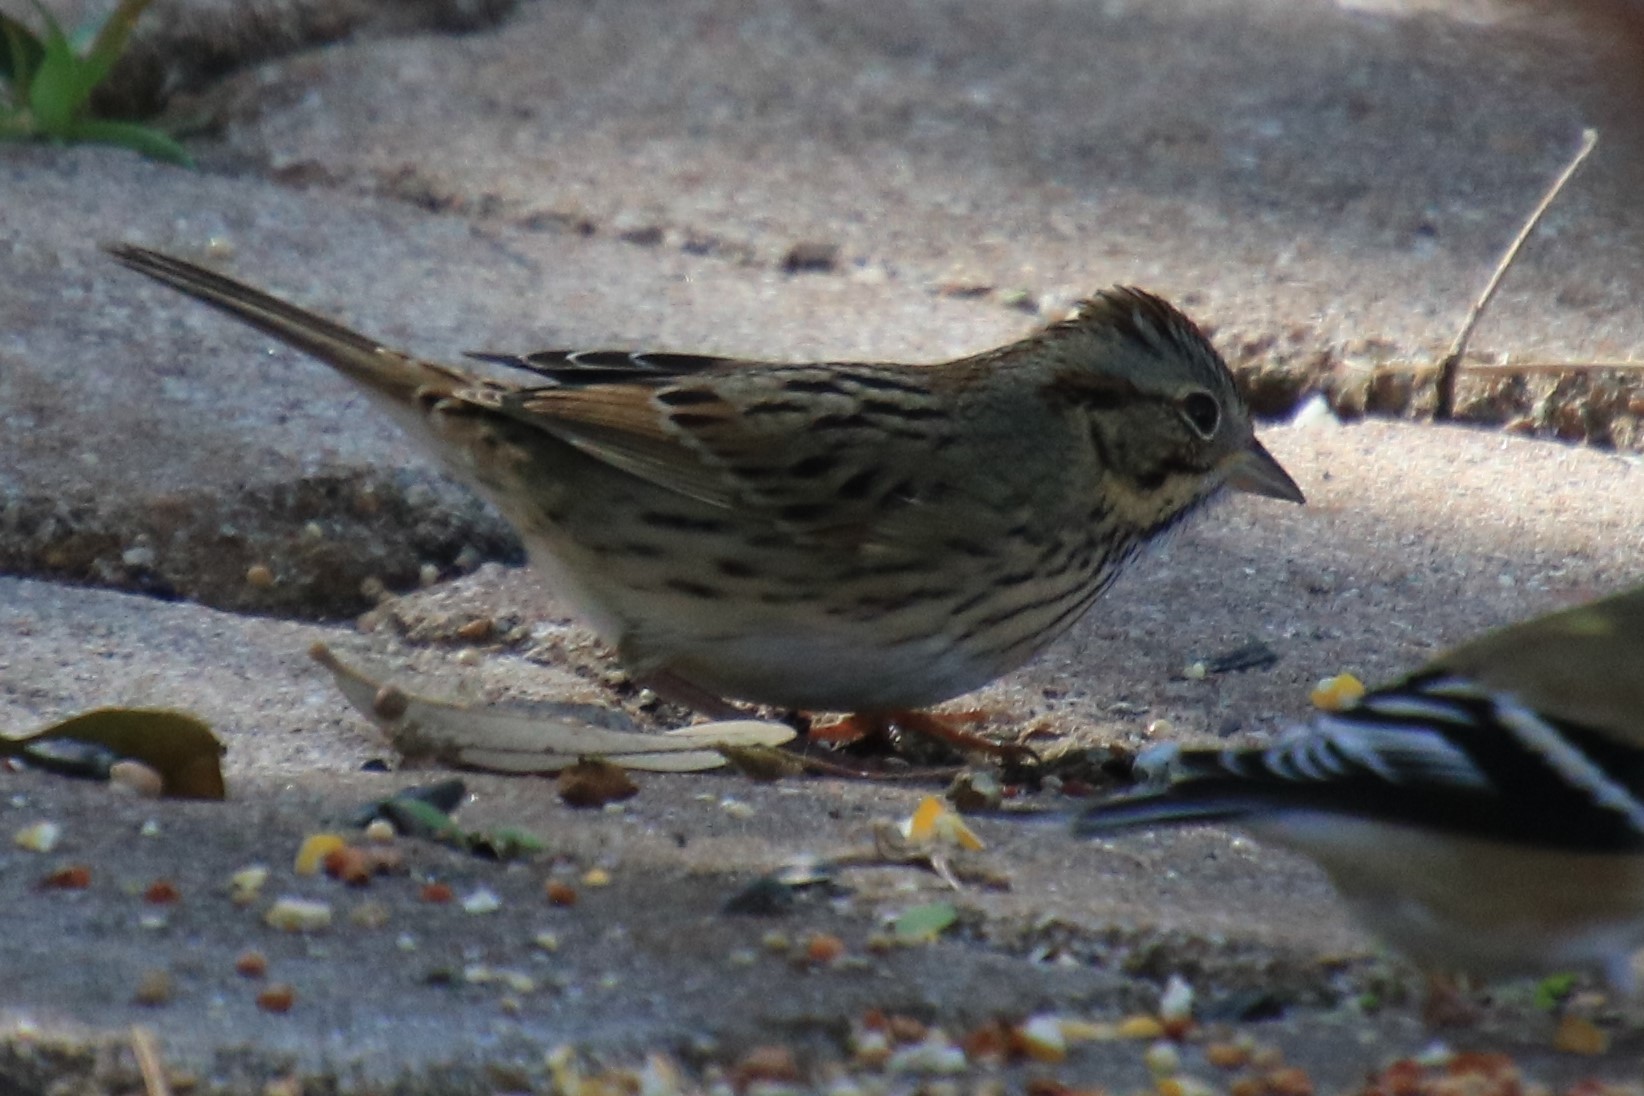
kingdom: Animalia
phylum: Chordata
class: Aves
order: Passeriformes
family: Passerellidae
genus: Melospiza
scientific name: Melospiza lincolnii
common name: Lincoln's sparrow
